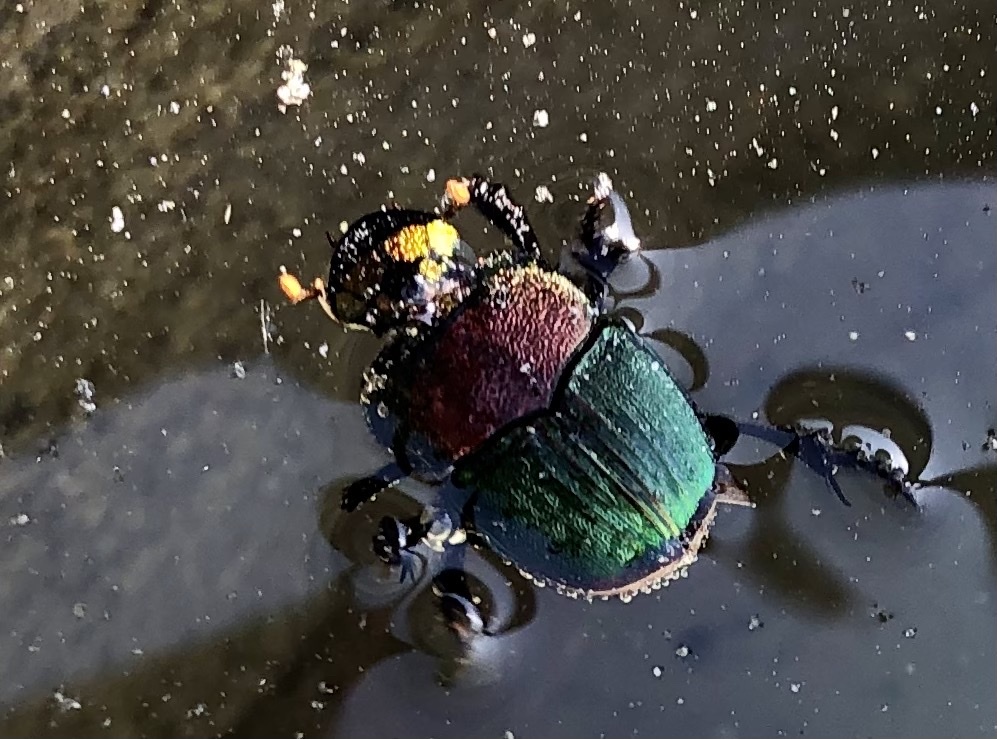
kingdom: Animalia
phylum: Arthropoda
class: Insecta
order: Coleoptera
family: Scarabaeidae
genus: Phanaeus
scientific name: Phanaeus vindex
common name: Rainbow scarab
